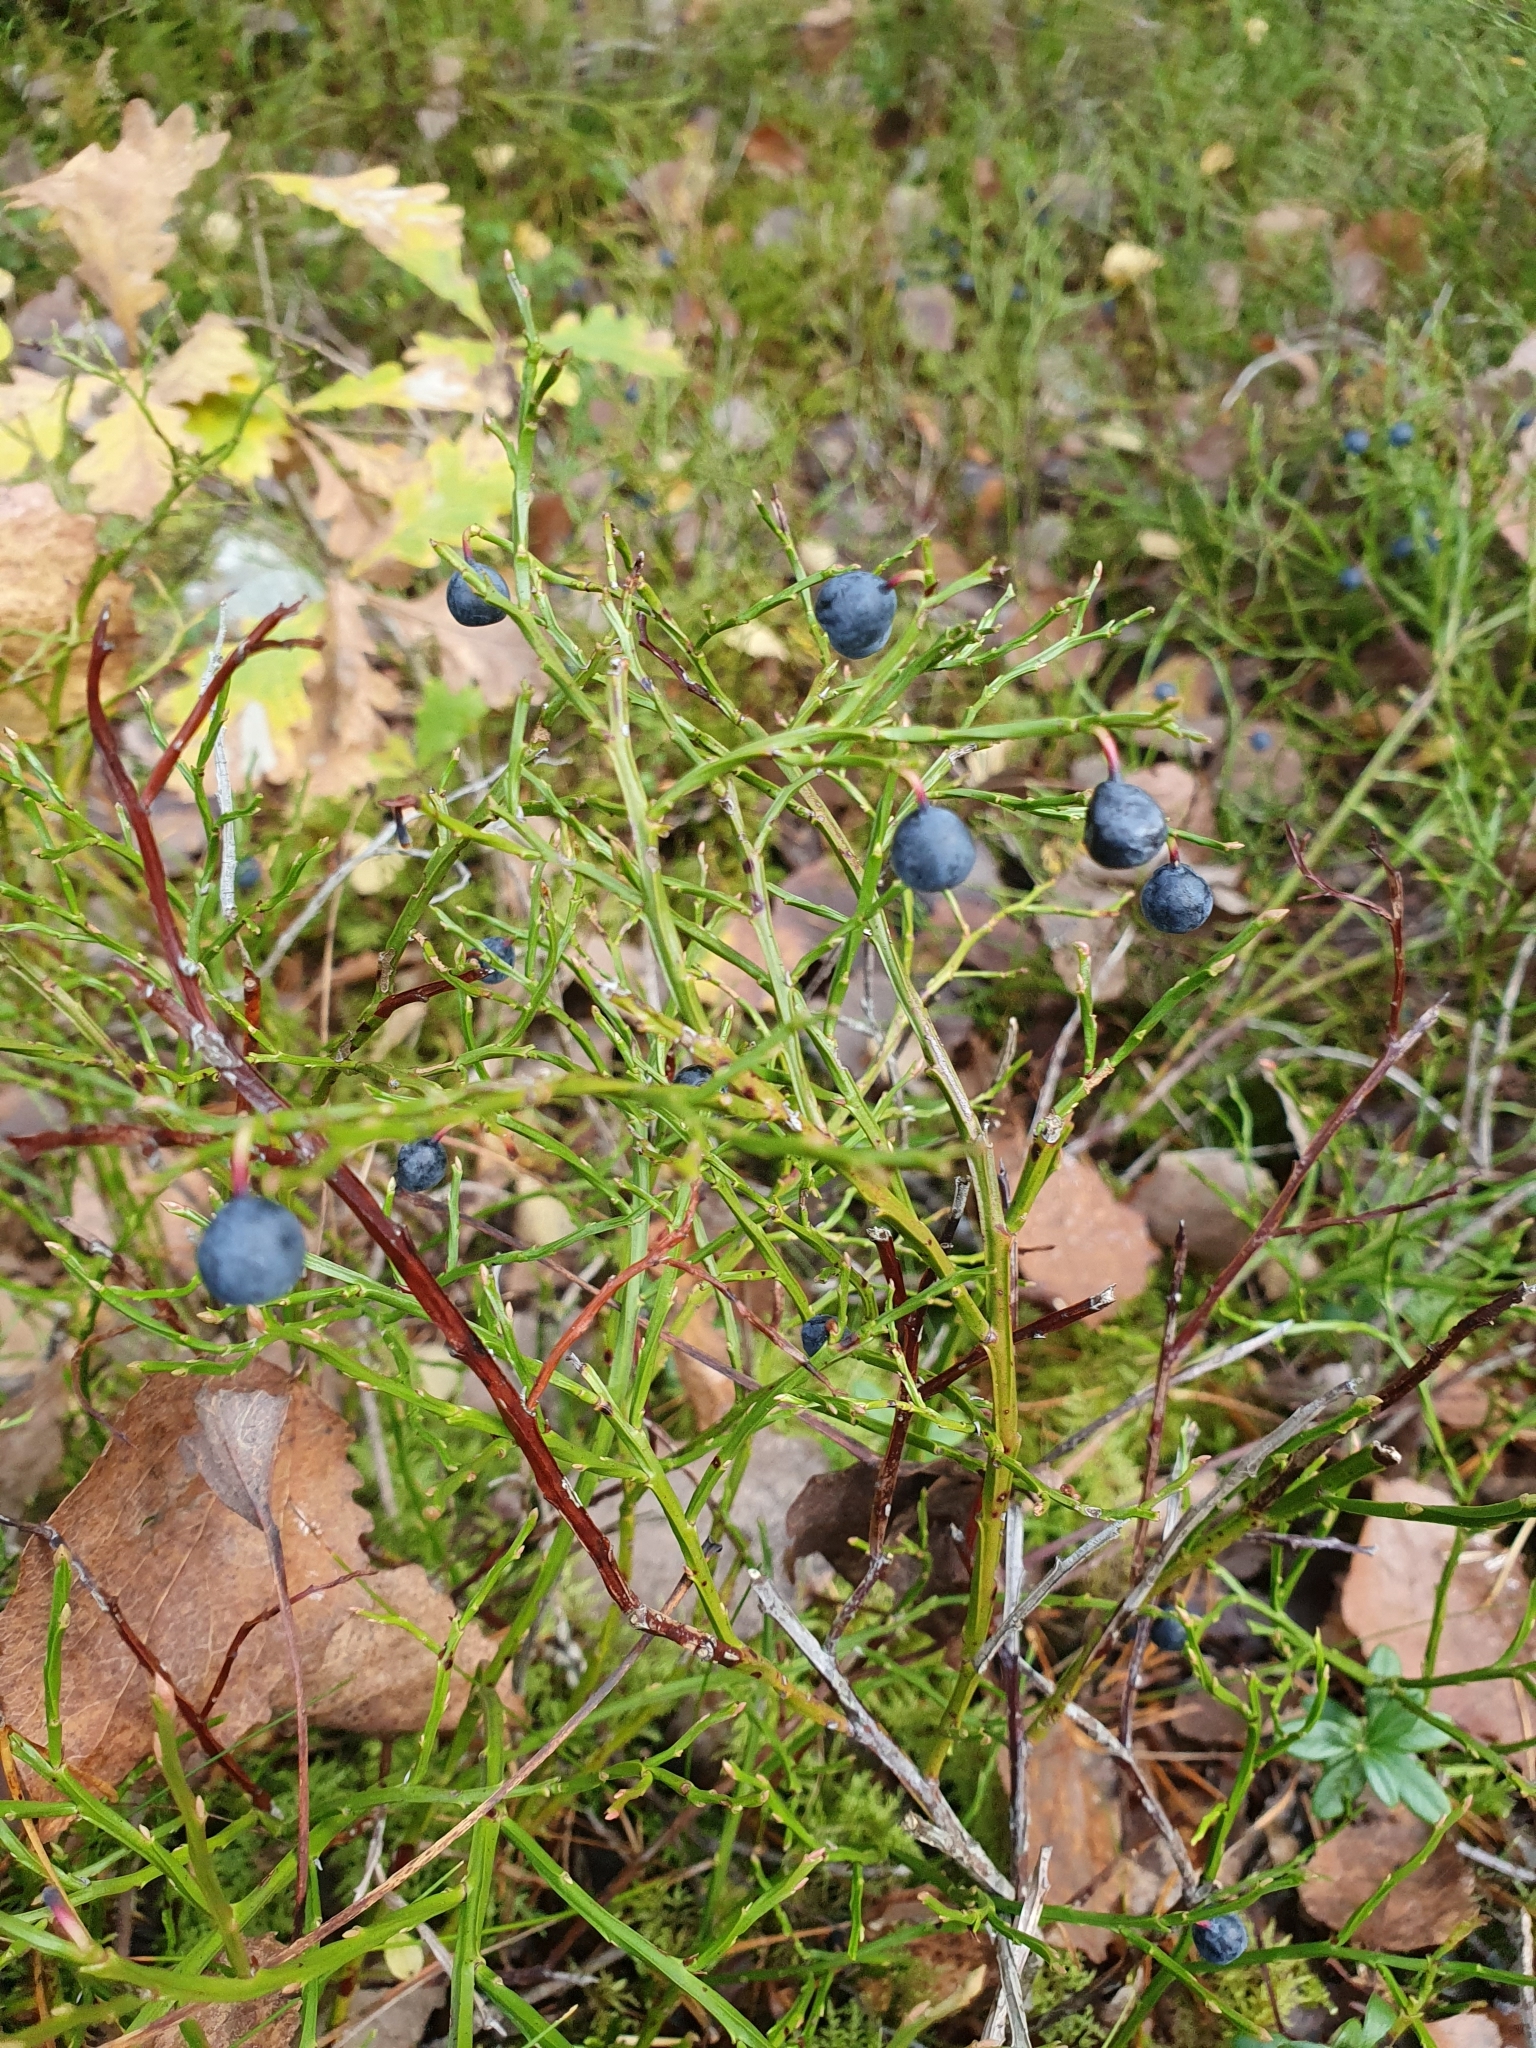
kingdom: Plantae
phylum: Tracheophyta
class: Magnoliopsida
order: Ericales
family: Ericaceae
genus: Vaccinium
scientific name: Vaccinium myrtillus
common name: Bilberry
